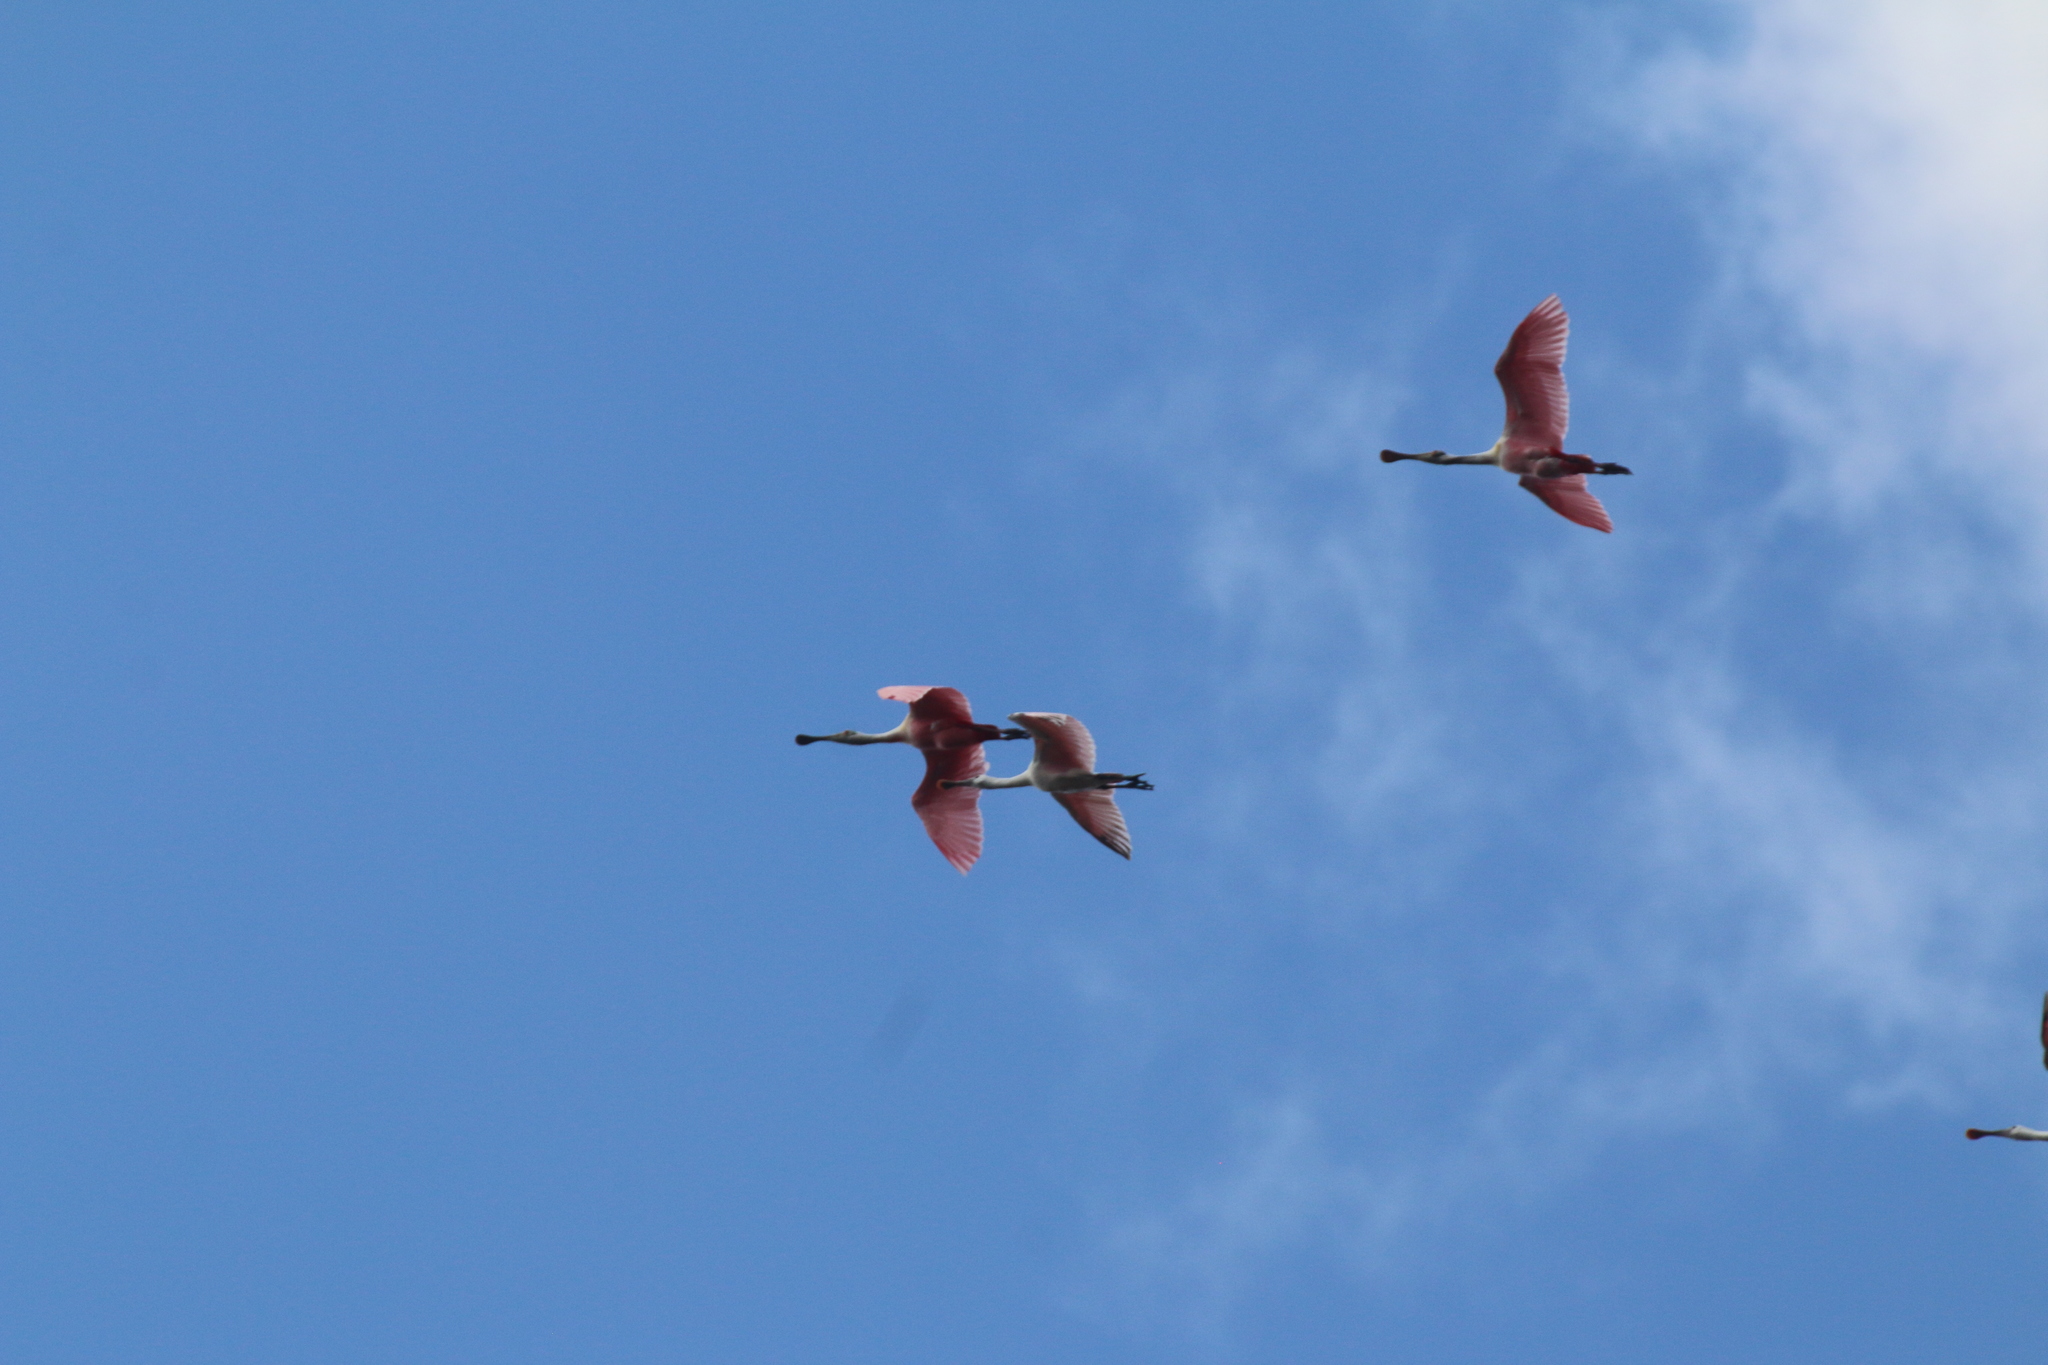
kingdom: Animalia
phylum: Chordata
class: Aves
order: Pelecaniformes
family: Threskiornithidae
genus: Platalea
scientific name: Platalea ajaja
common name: Roseate spoonbill
